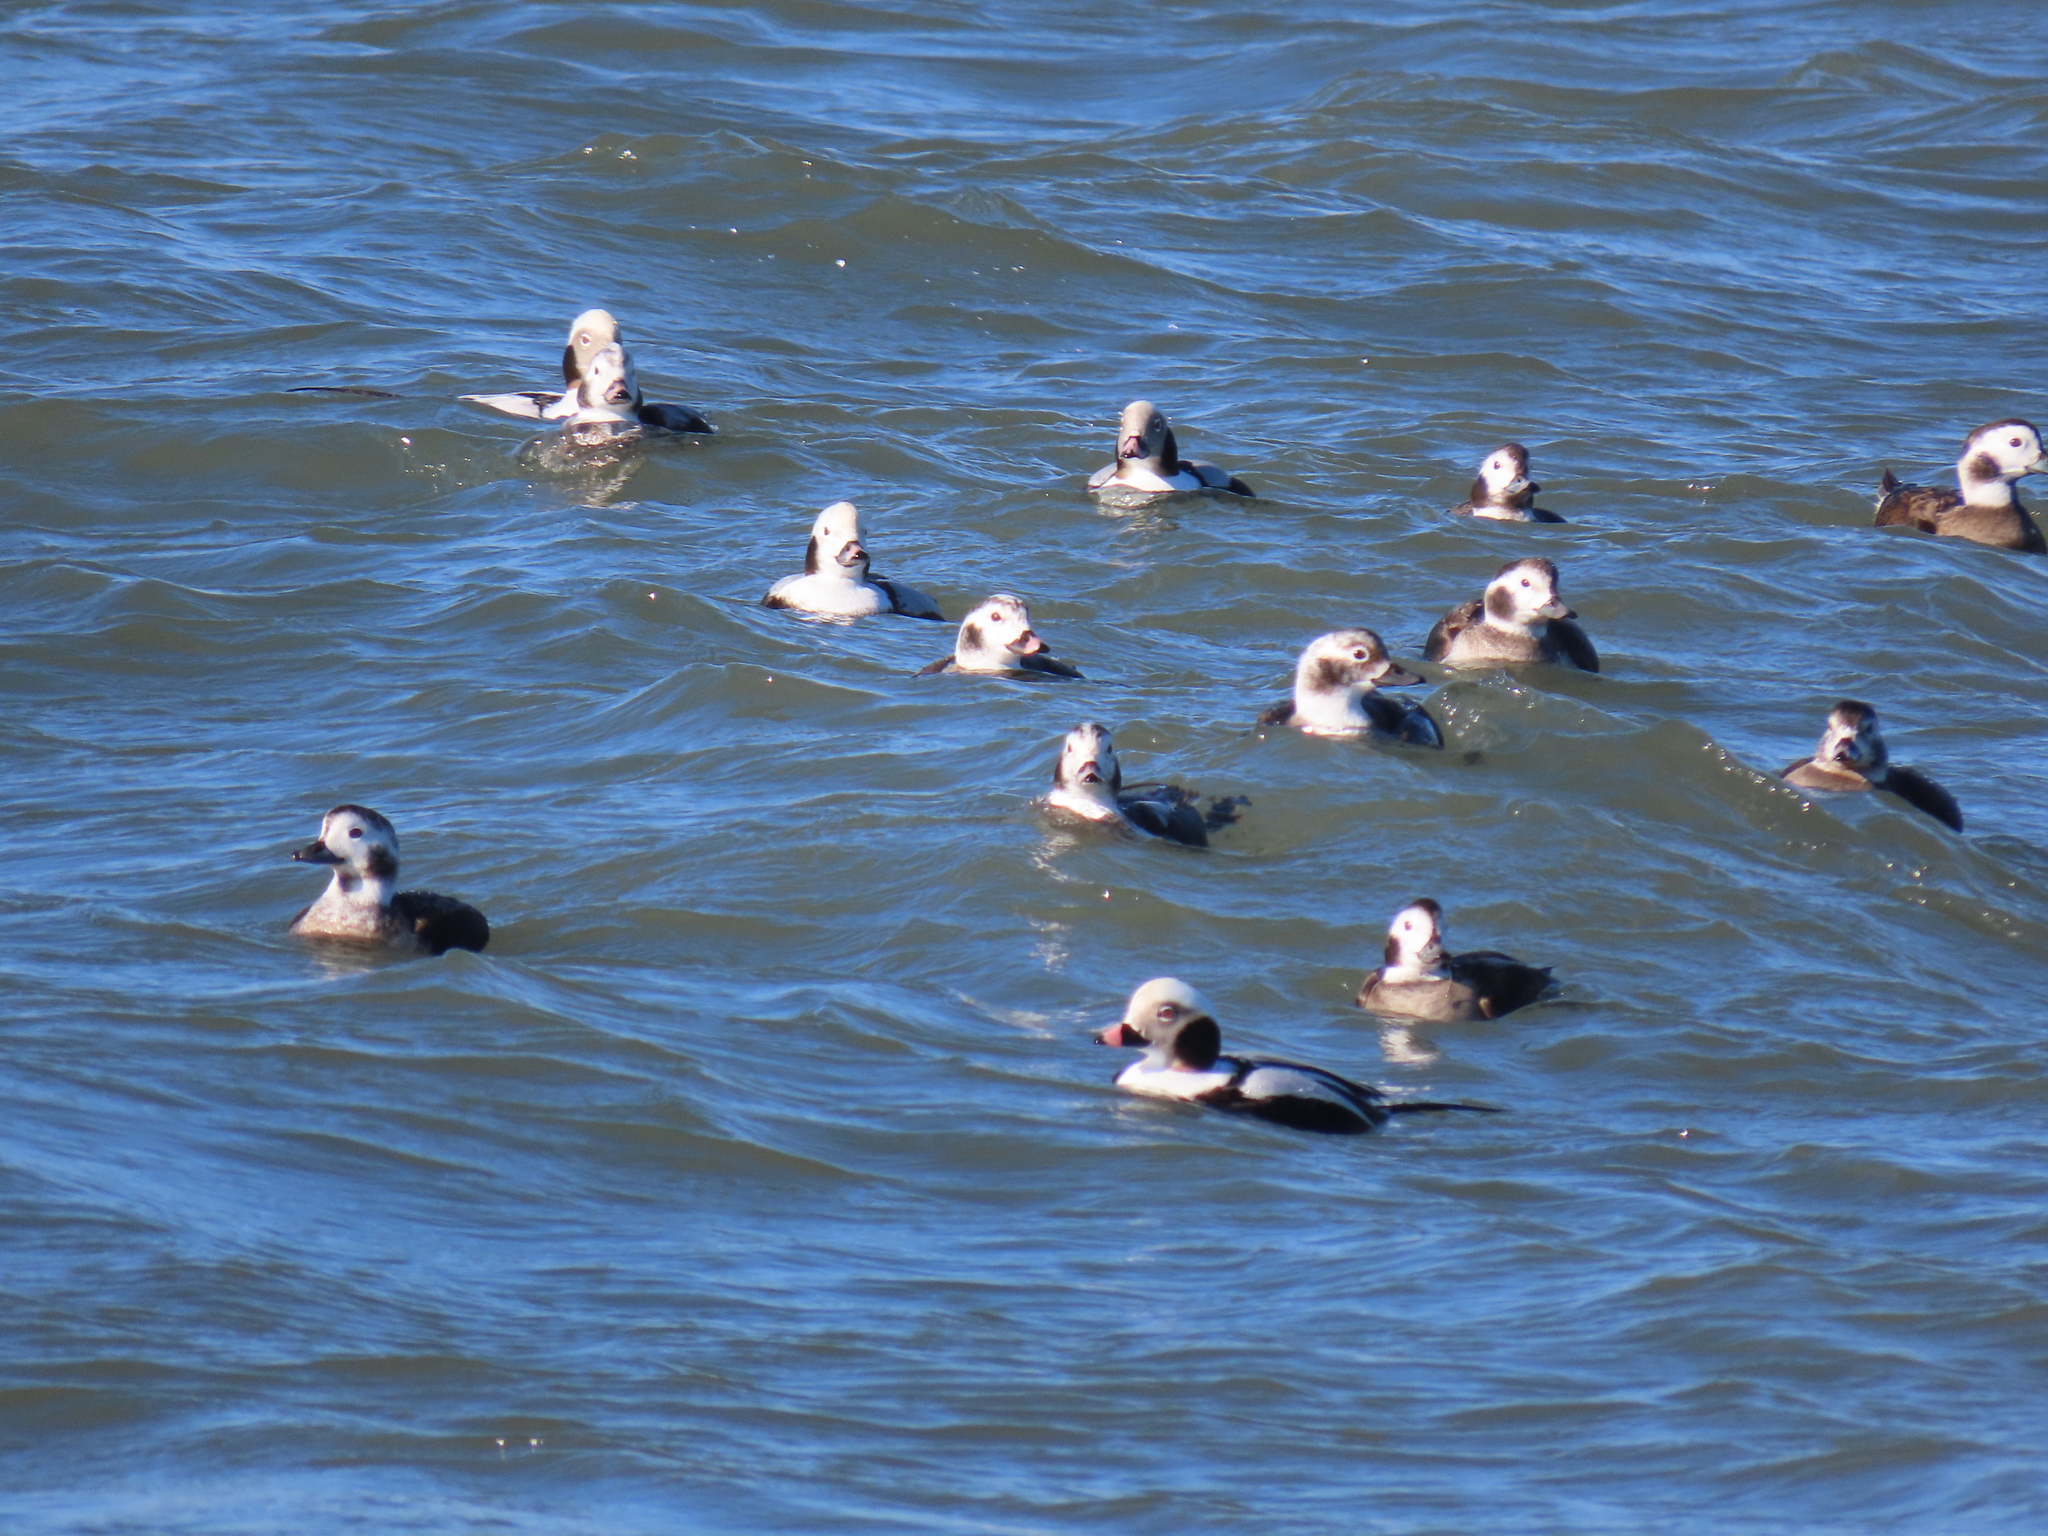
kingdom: Animalia
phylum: Chordata
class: Aves
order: Anseriformes
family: Anatidae
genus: Clangula
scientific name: Clangula hyemalis
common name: Long-tailed duck
